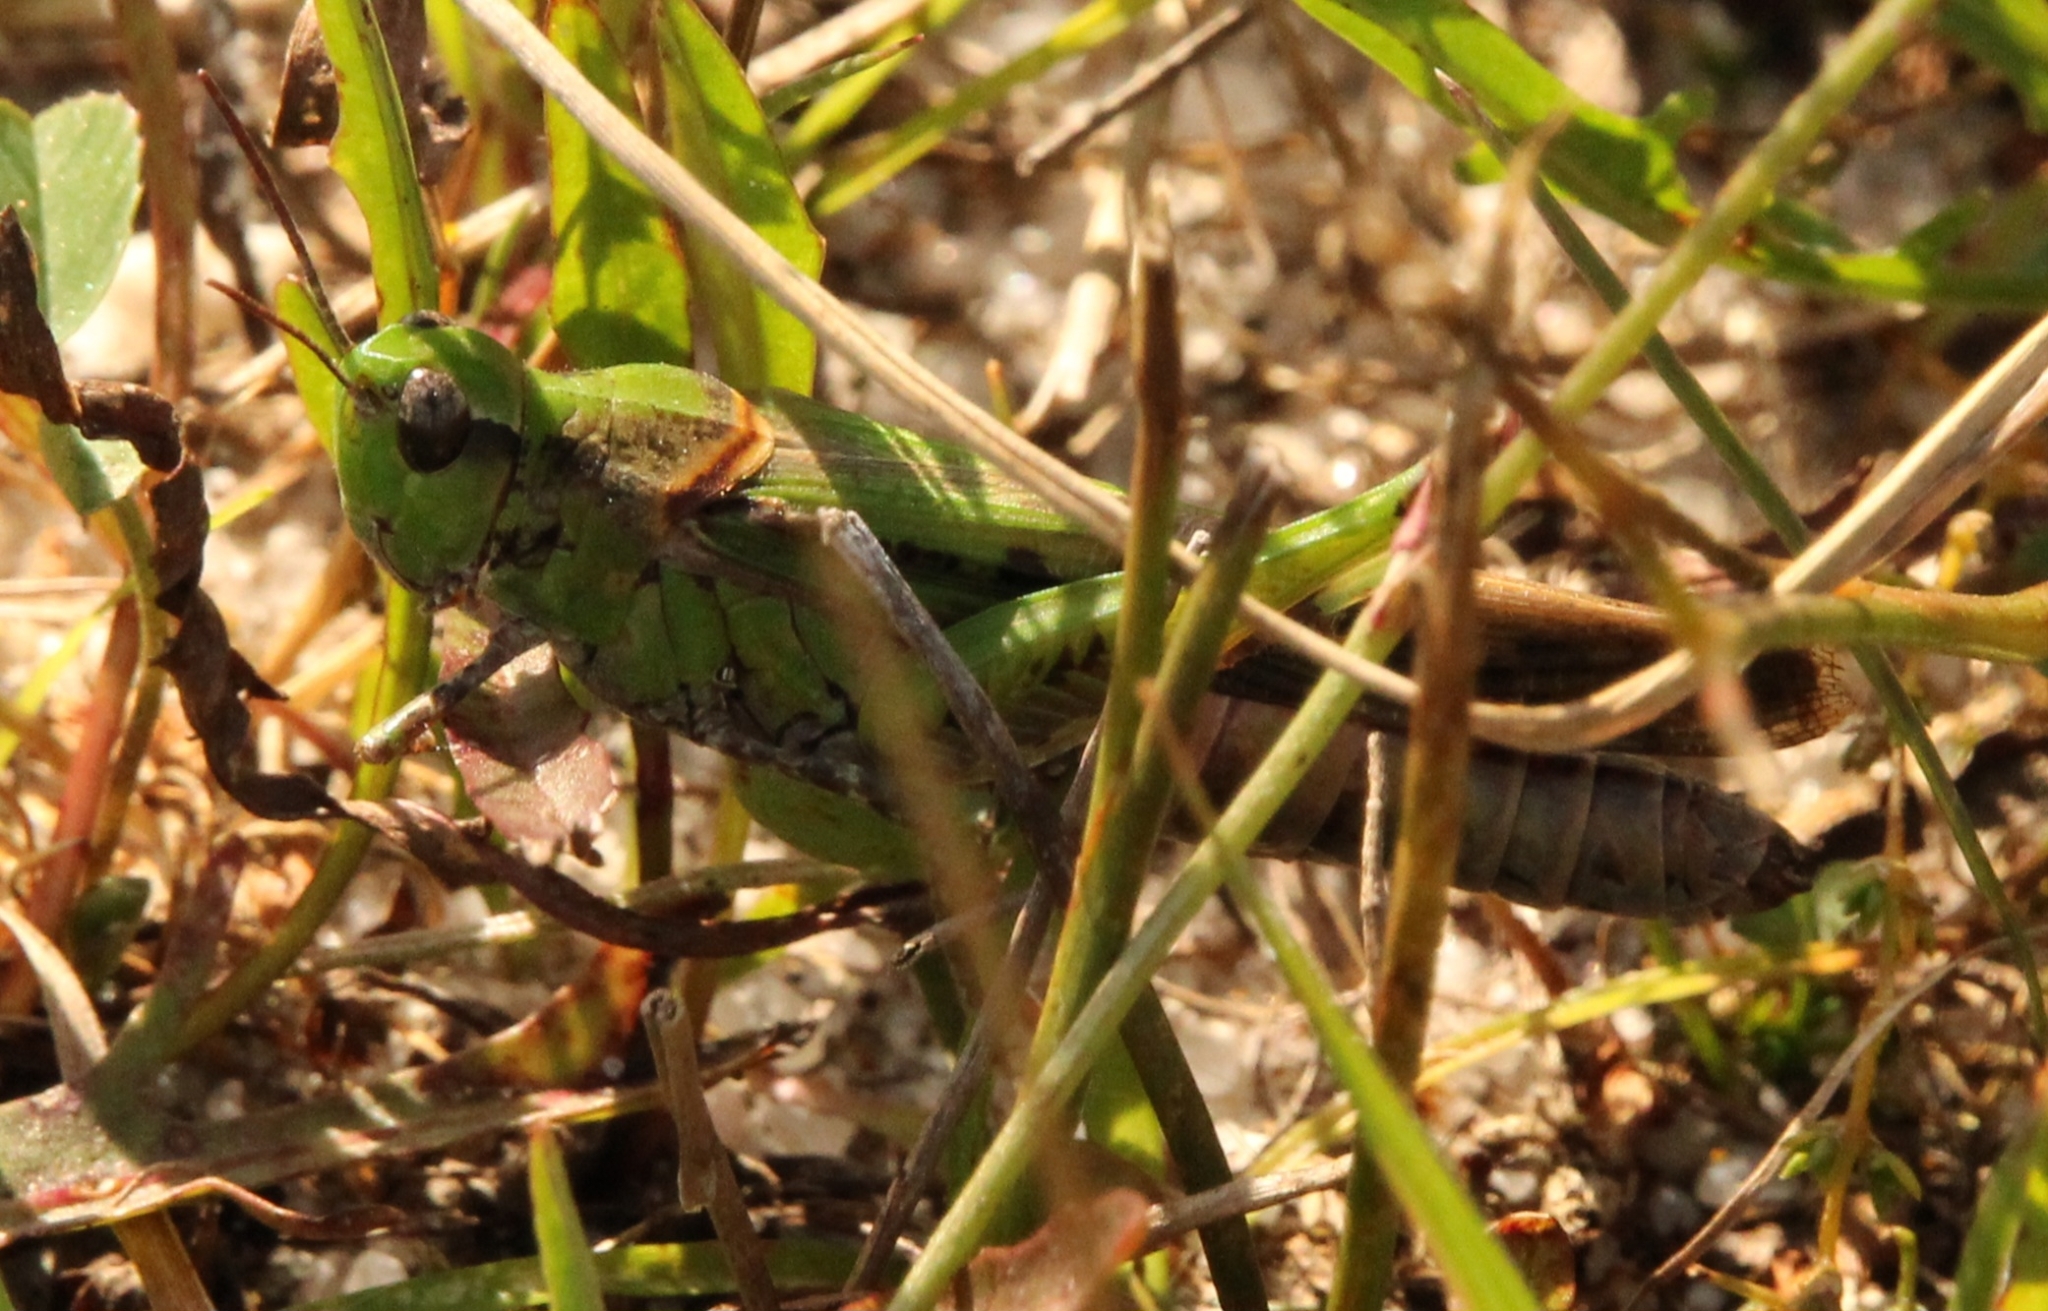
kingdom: Animalia
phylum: Arthropoda
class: Insecta
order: Orthoptera
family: Acrididae
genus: Aiolopus
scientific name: Aiolopus thalassinus
